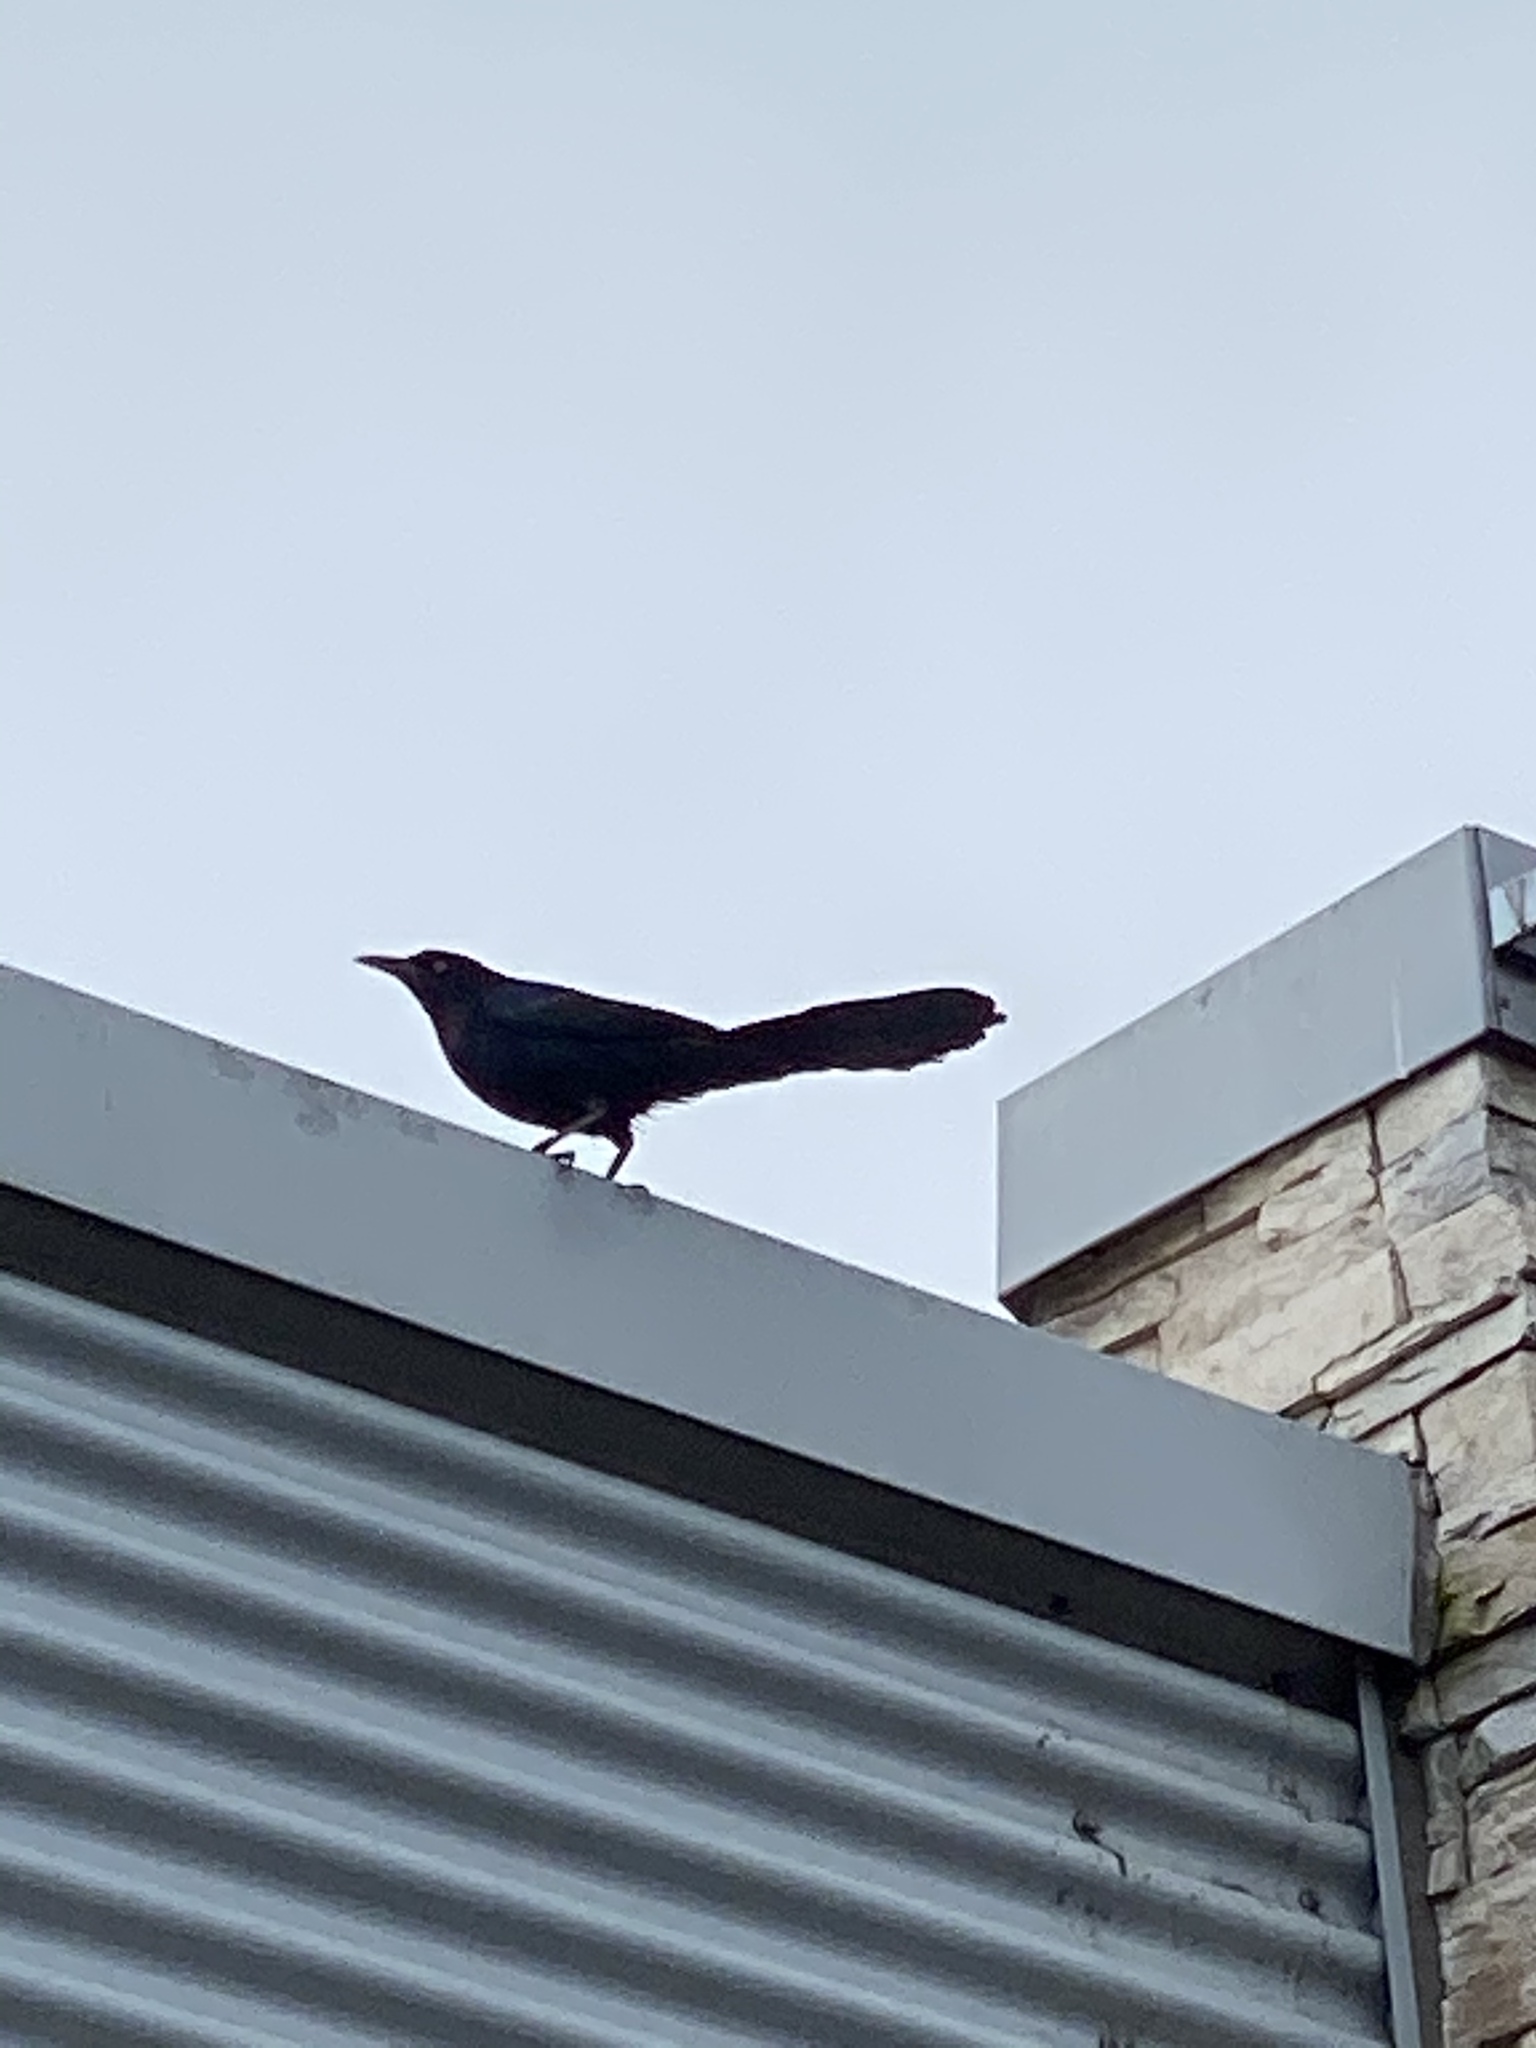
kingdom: Animalia
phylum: Chordata
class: Aves
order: Passeriformes
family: Icteridae
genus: Quiscalus
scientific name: Quiscalus mexicanus
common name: Great-tailed grackle
